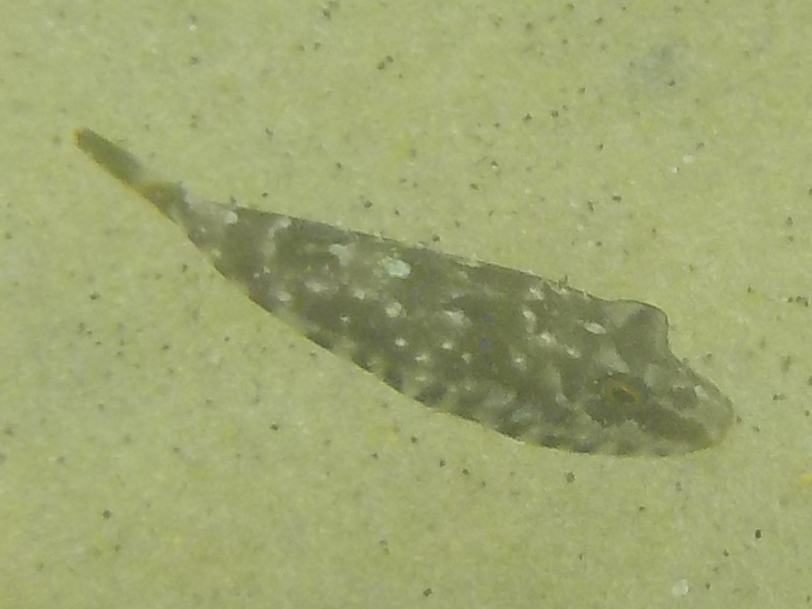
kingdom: Animalia
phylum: Chordata
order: Tetraodontiformes
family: Tetraodontidae
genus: Sphoeroides
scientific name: Sphoeroides spengleri
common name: Bandtail puffer
